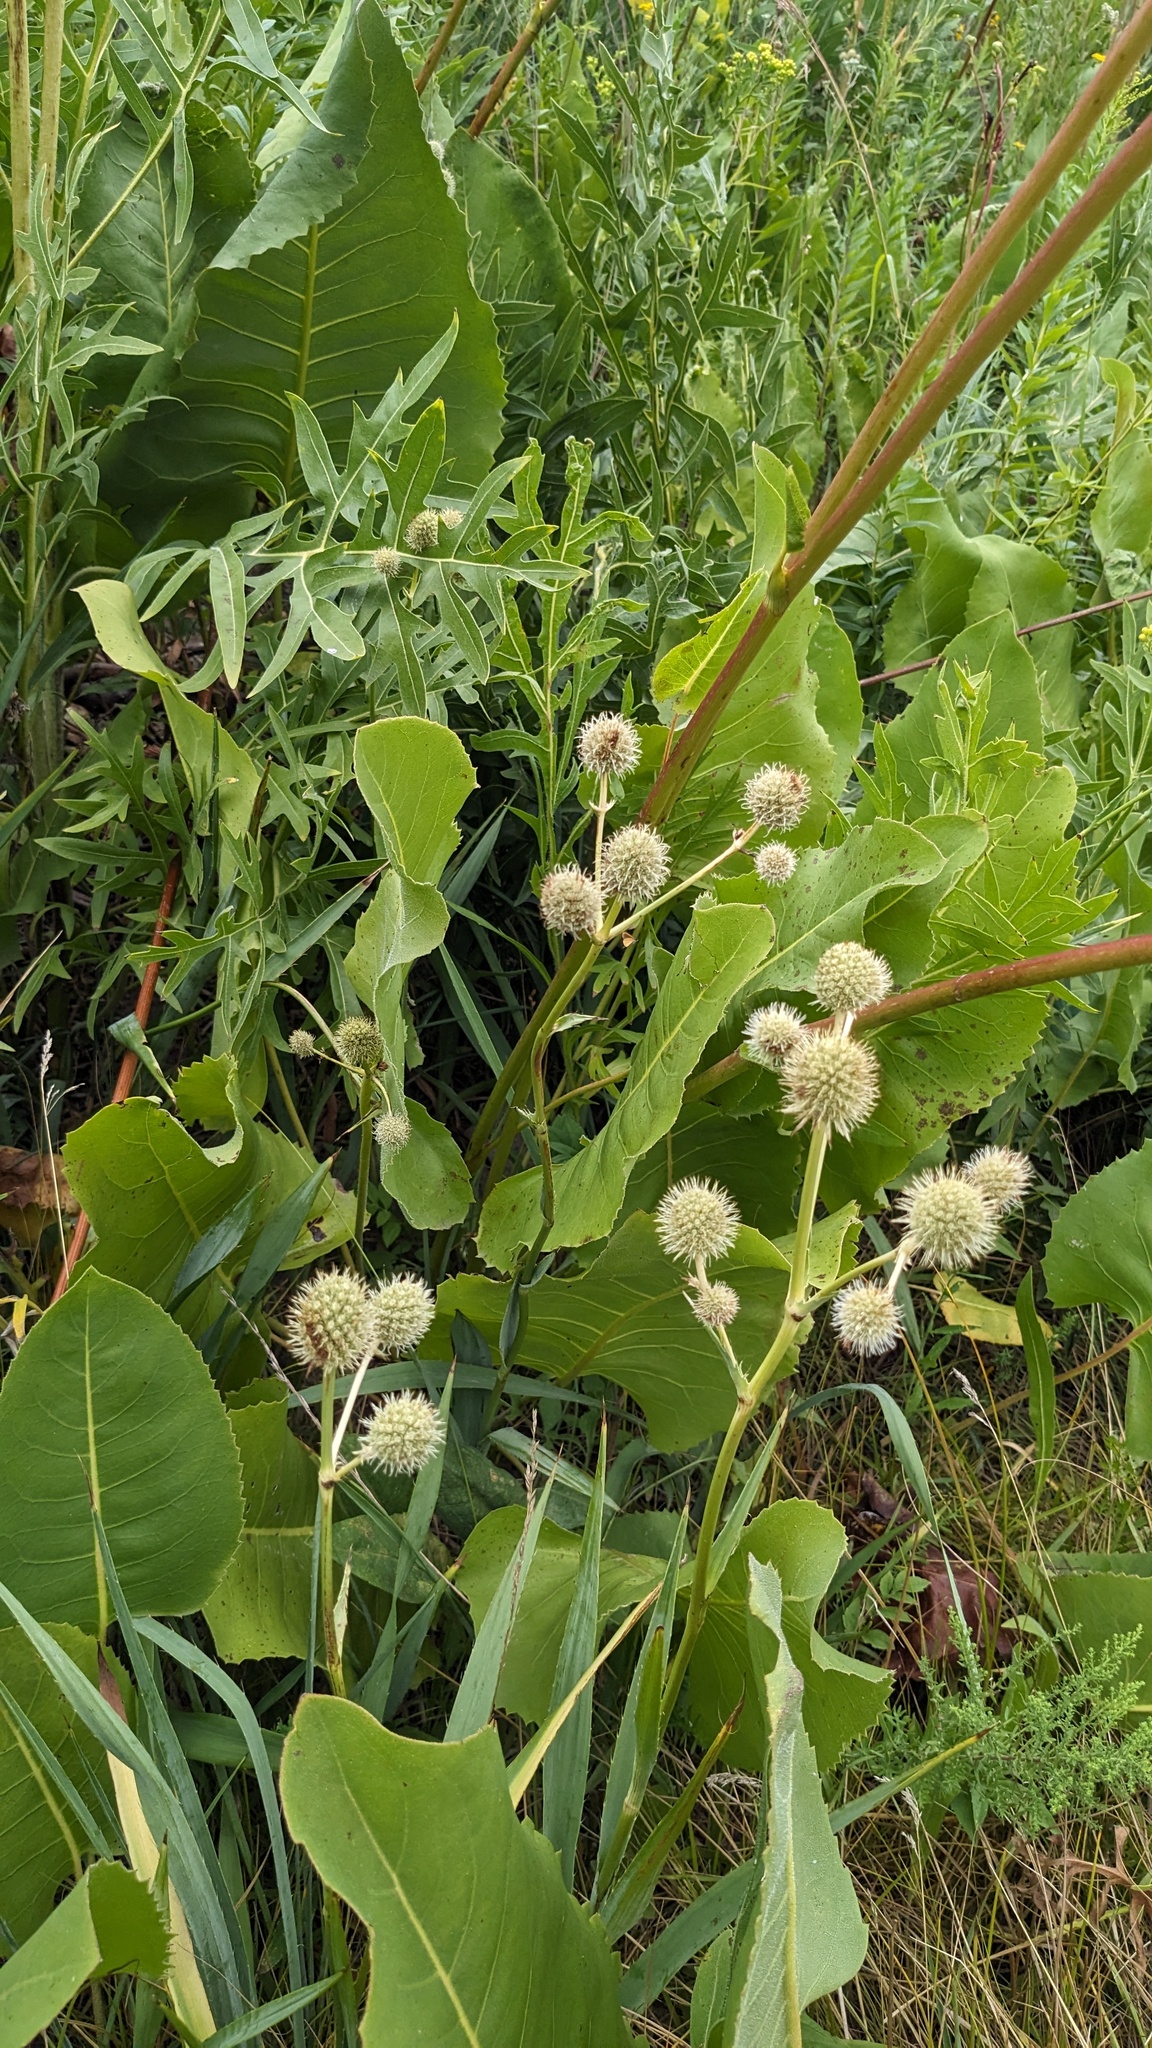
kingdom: Plantae
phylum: Tracheophyta
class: Magnoliopsida
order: Apiales
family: Apiaceae
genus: Eryngium
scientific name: Eryngium yuccifolium
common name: Button eryngo
